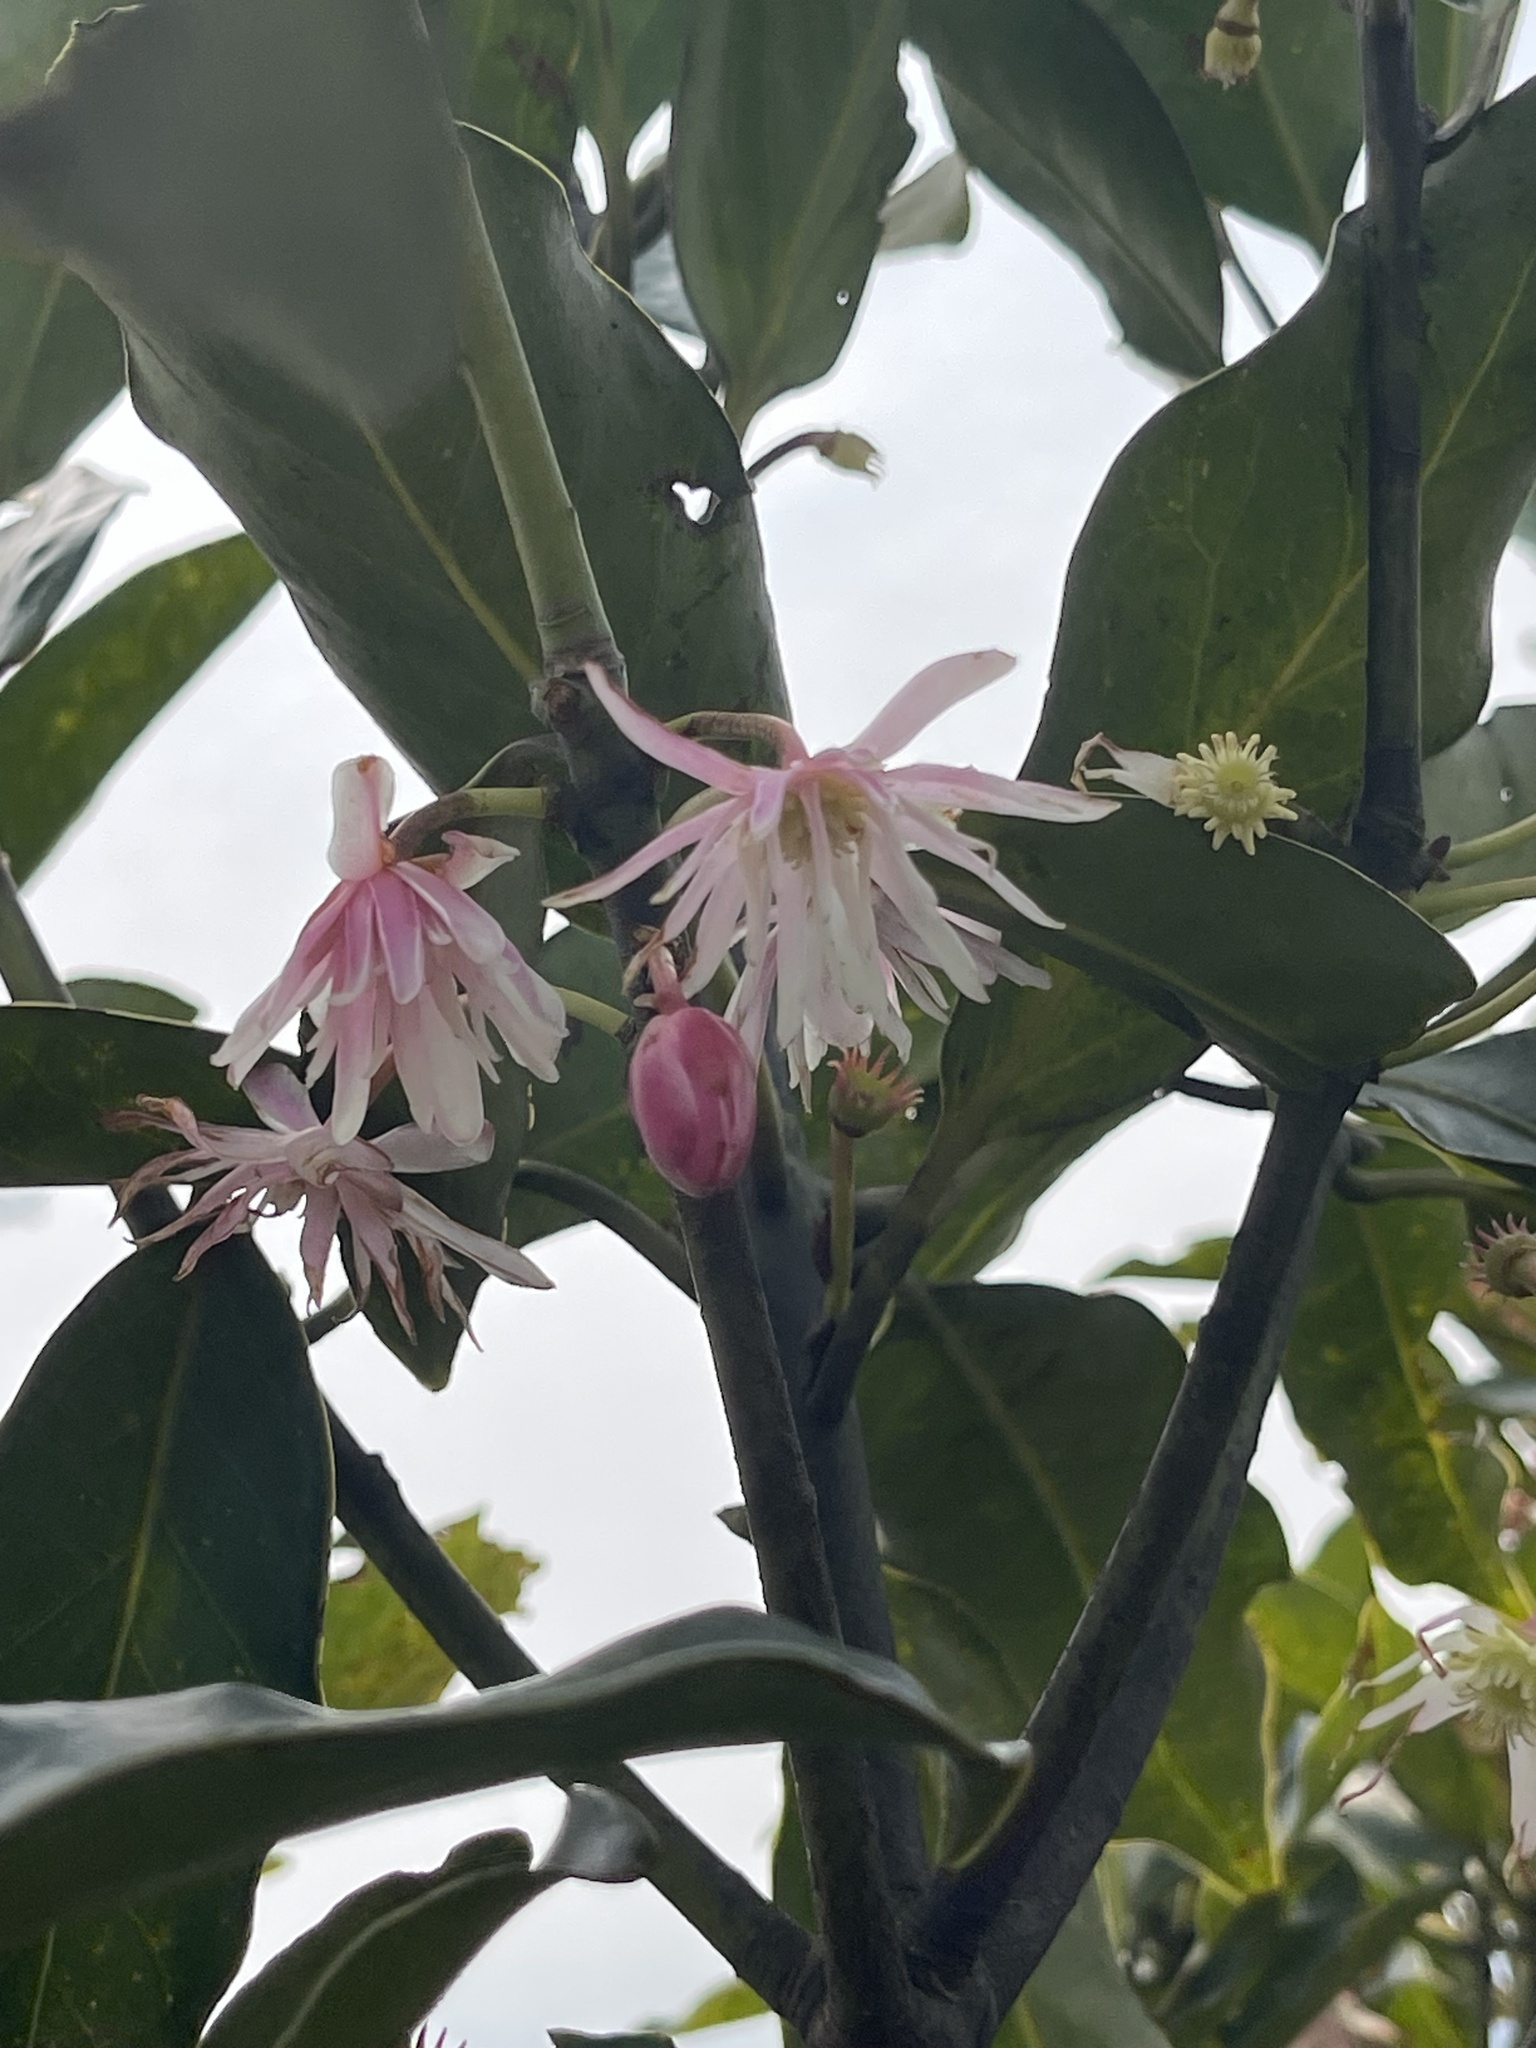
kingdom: Plantae
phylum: Tracheophyta
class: Magnoliopsida
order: Austrobaileyales
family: Schisandraceae
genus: Illicium
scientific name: Illicium angustisepalum
